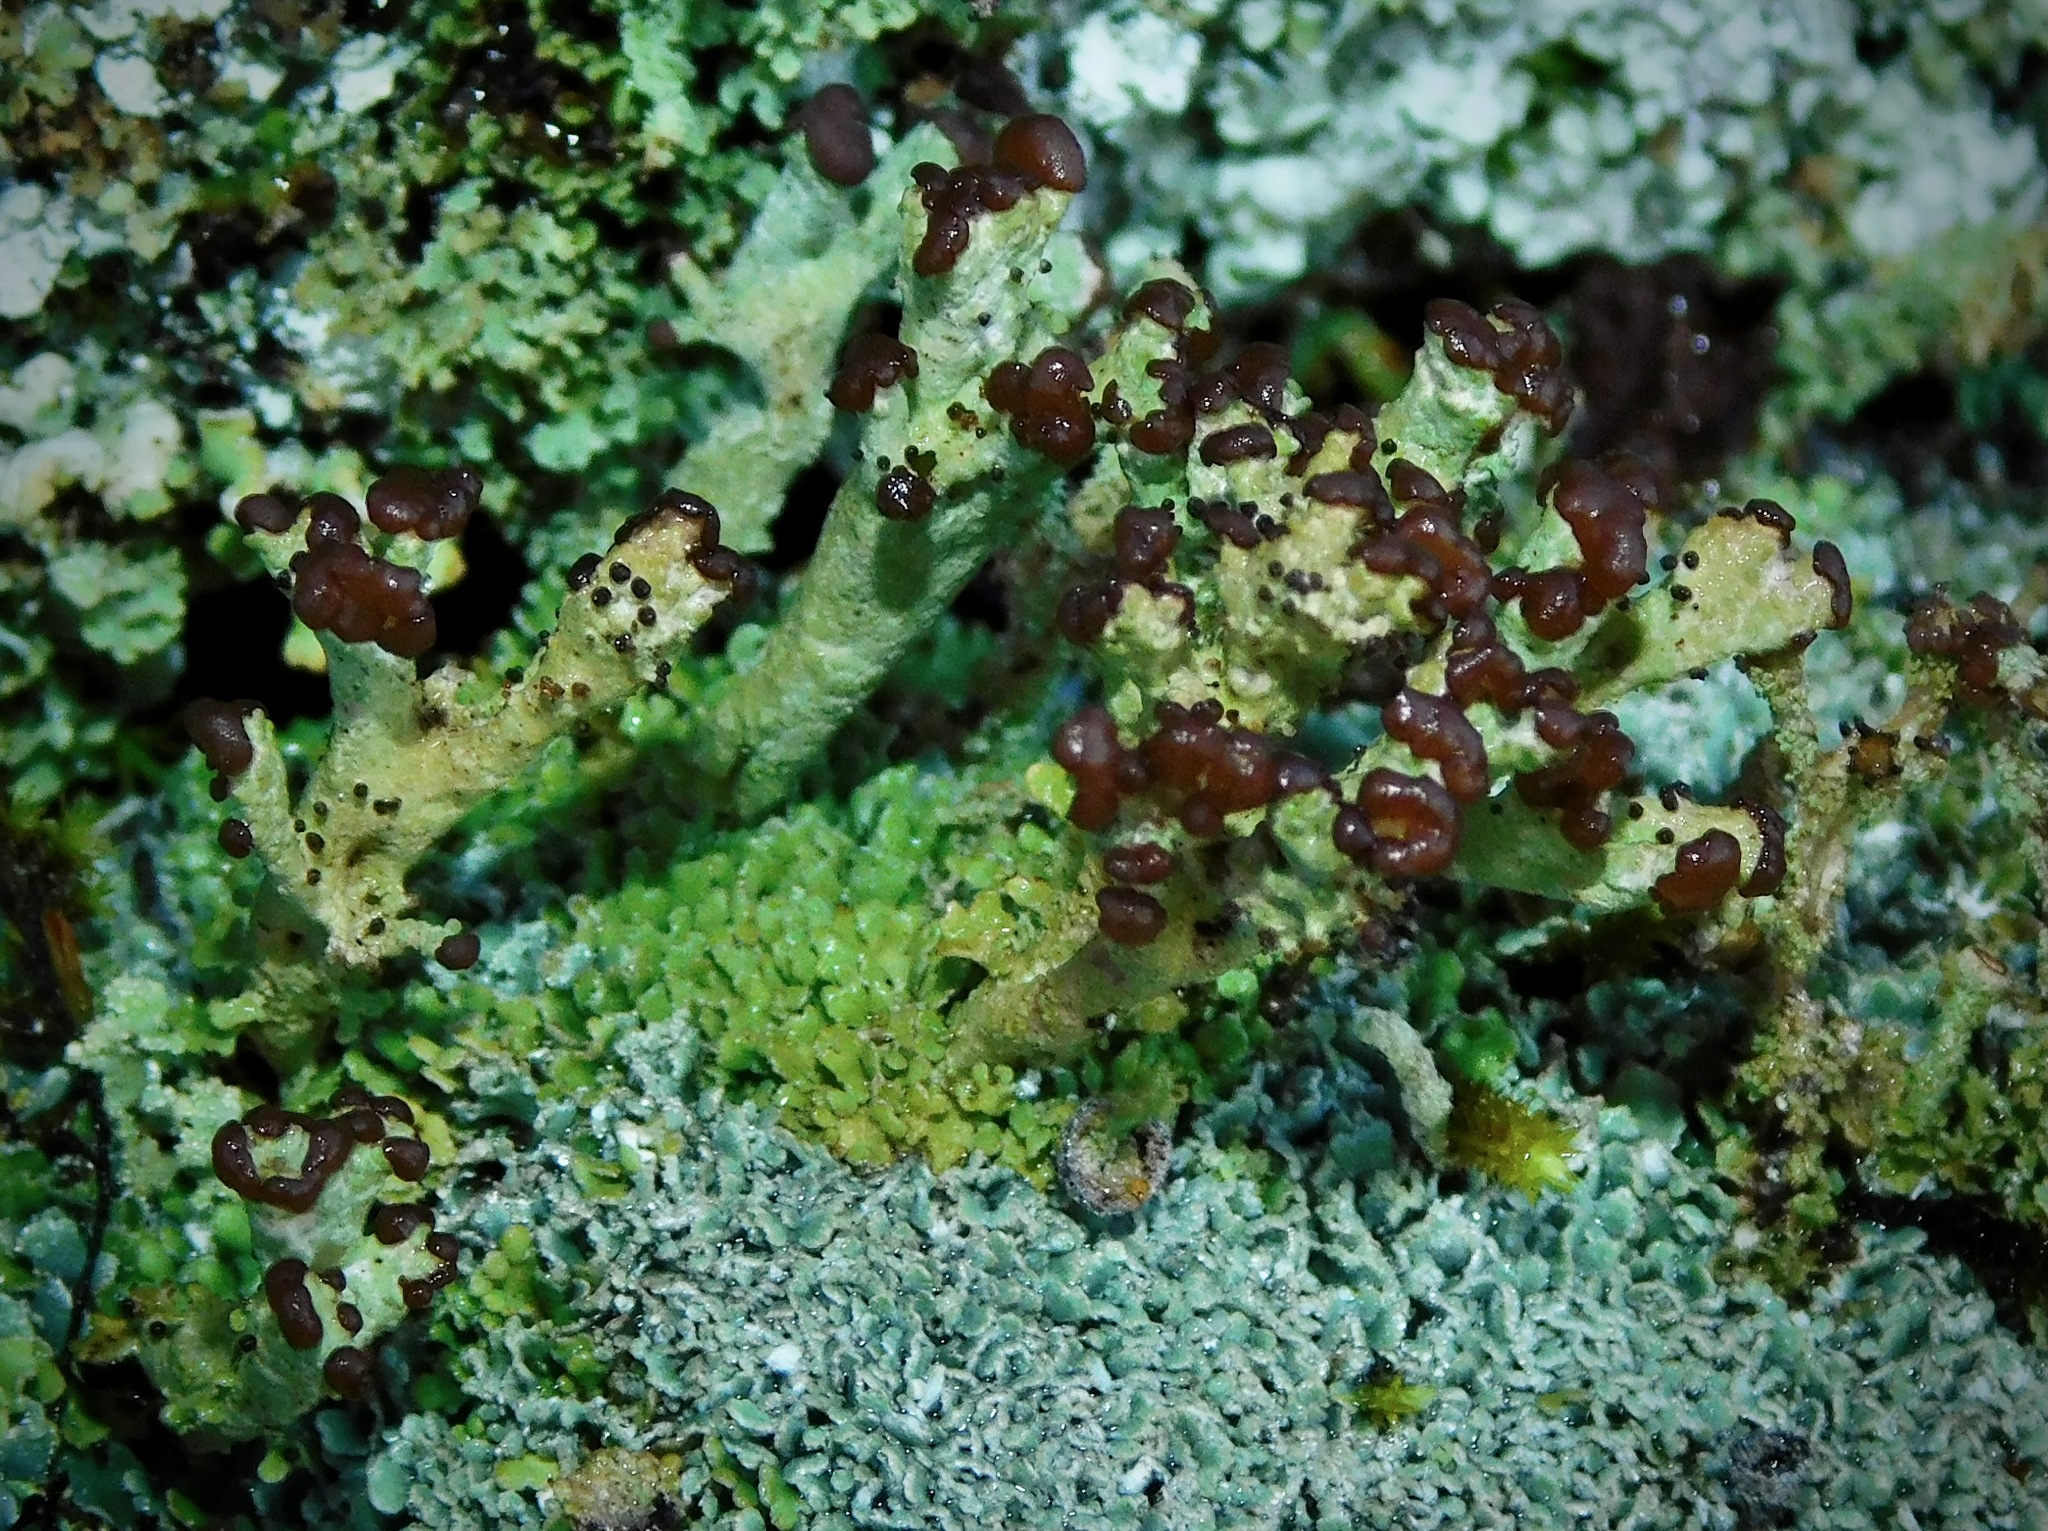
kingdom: Fungi
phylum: Ascomycota
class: Lecanoromycetes
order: Lecanorales
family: Cladoniaceae
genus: Cladonia
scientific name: Cladonia subcariosa
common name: Peg lichen
